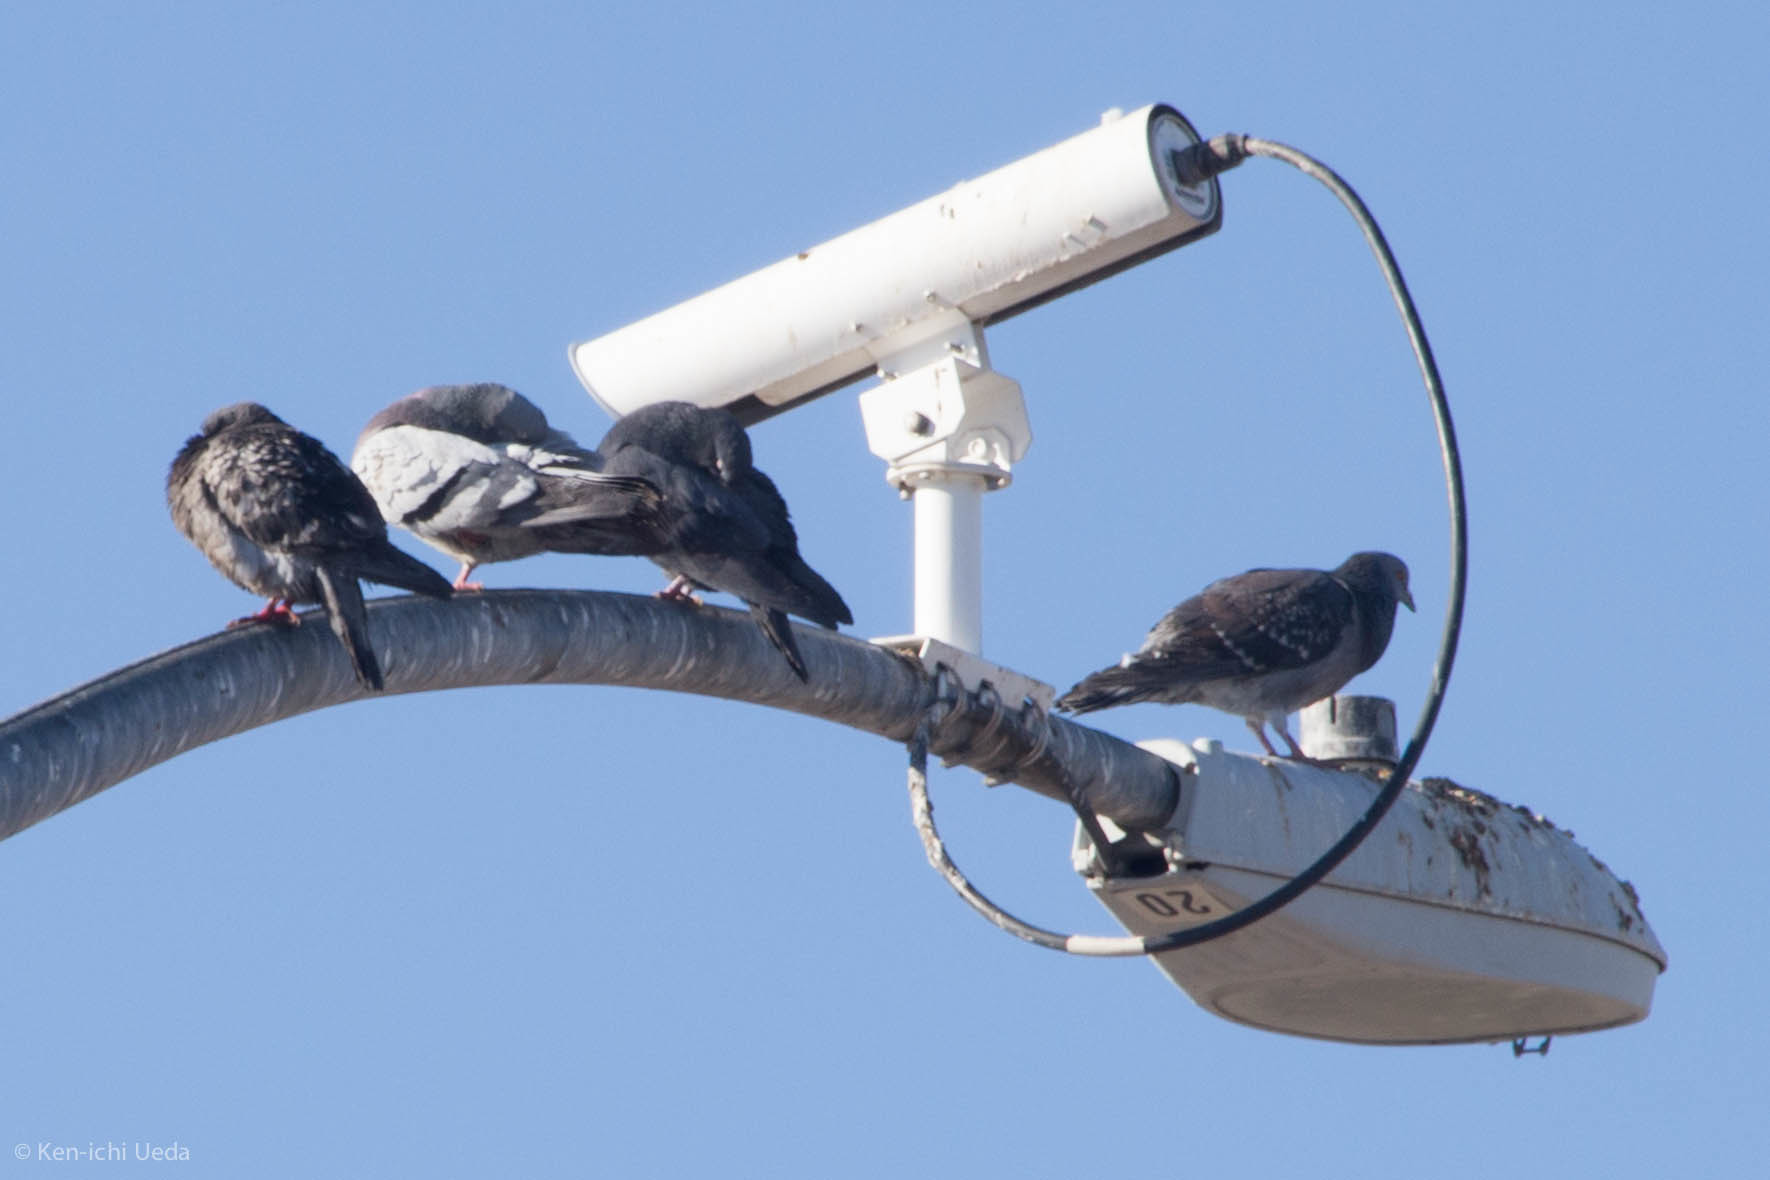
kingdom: Animalia
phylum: Chordata
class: Aves
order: Columbiformes
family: Columbidae
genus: Columba
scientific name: Columba livia
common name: Rock pigeon
